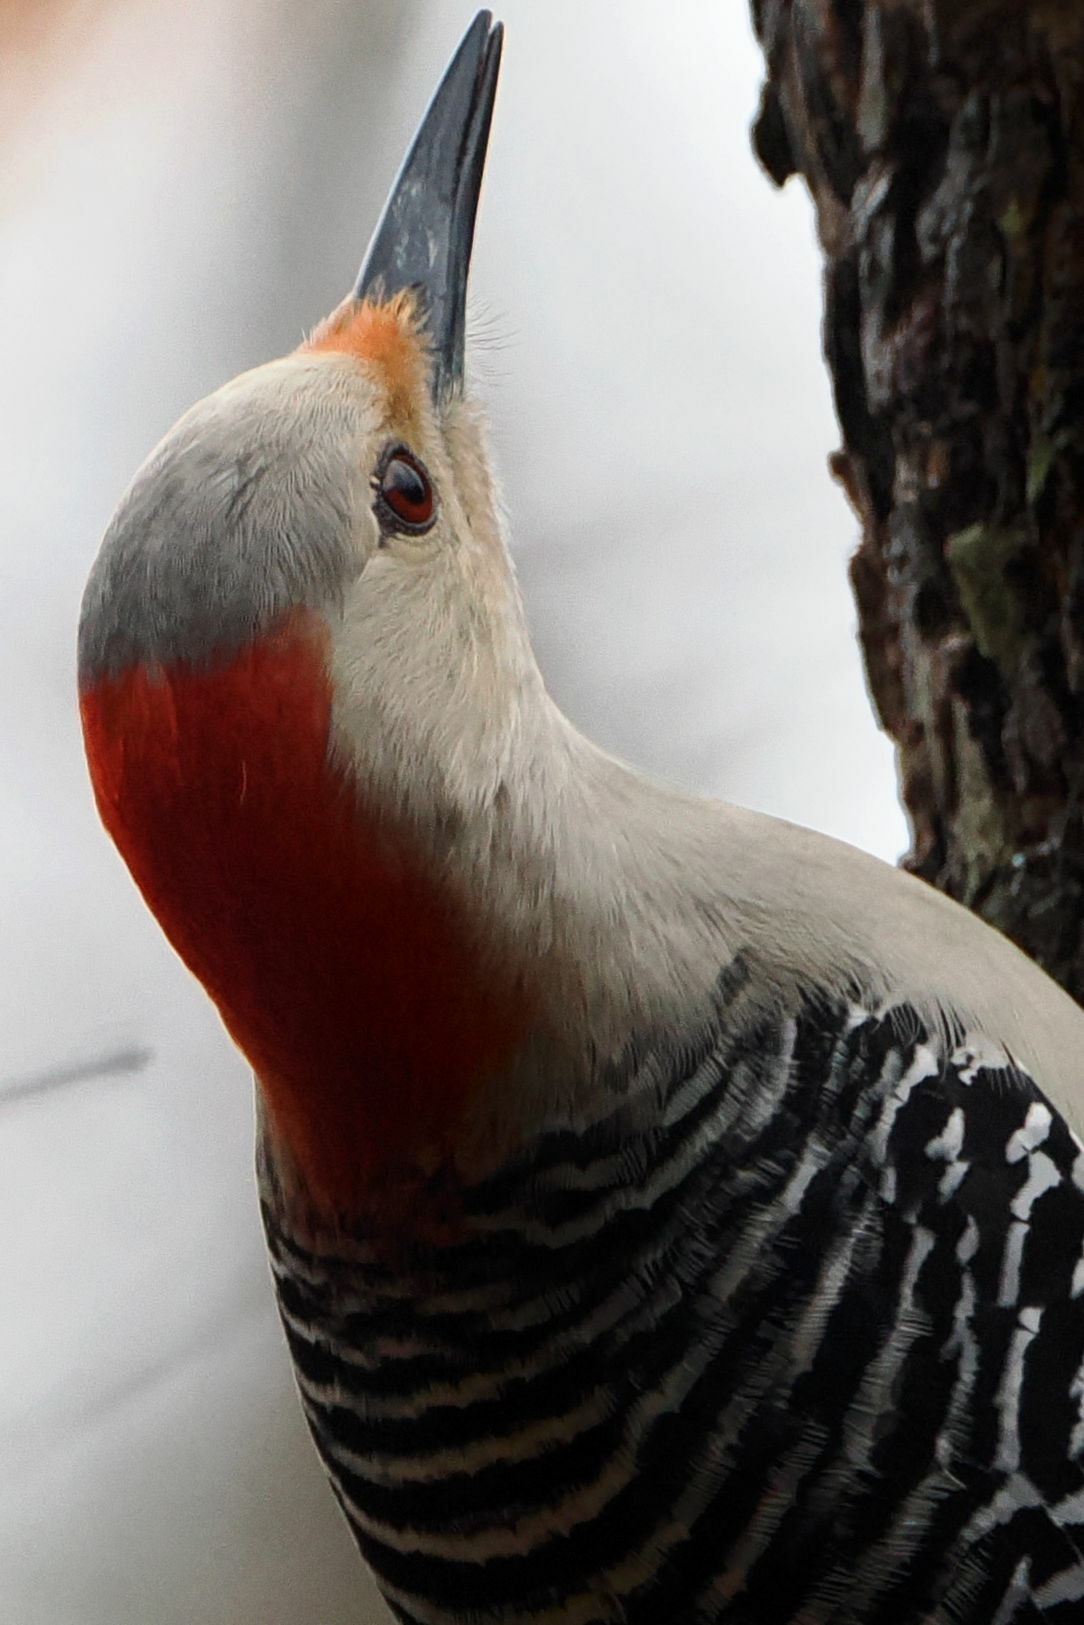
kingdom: Animalia
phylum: Chordata
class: Aves
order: Piciformes
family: Picidae
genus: Melanerpes
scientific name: Melanerpes carolinus
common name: Red-bellied woodpecker
